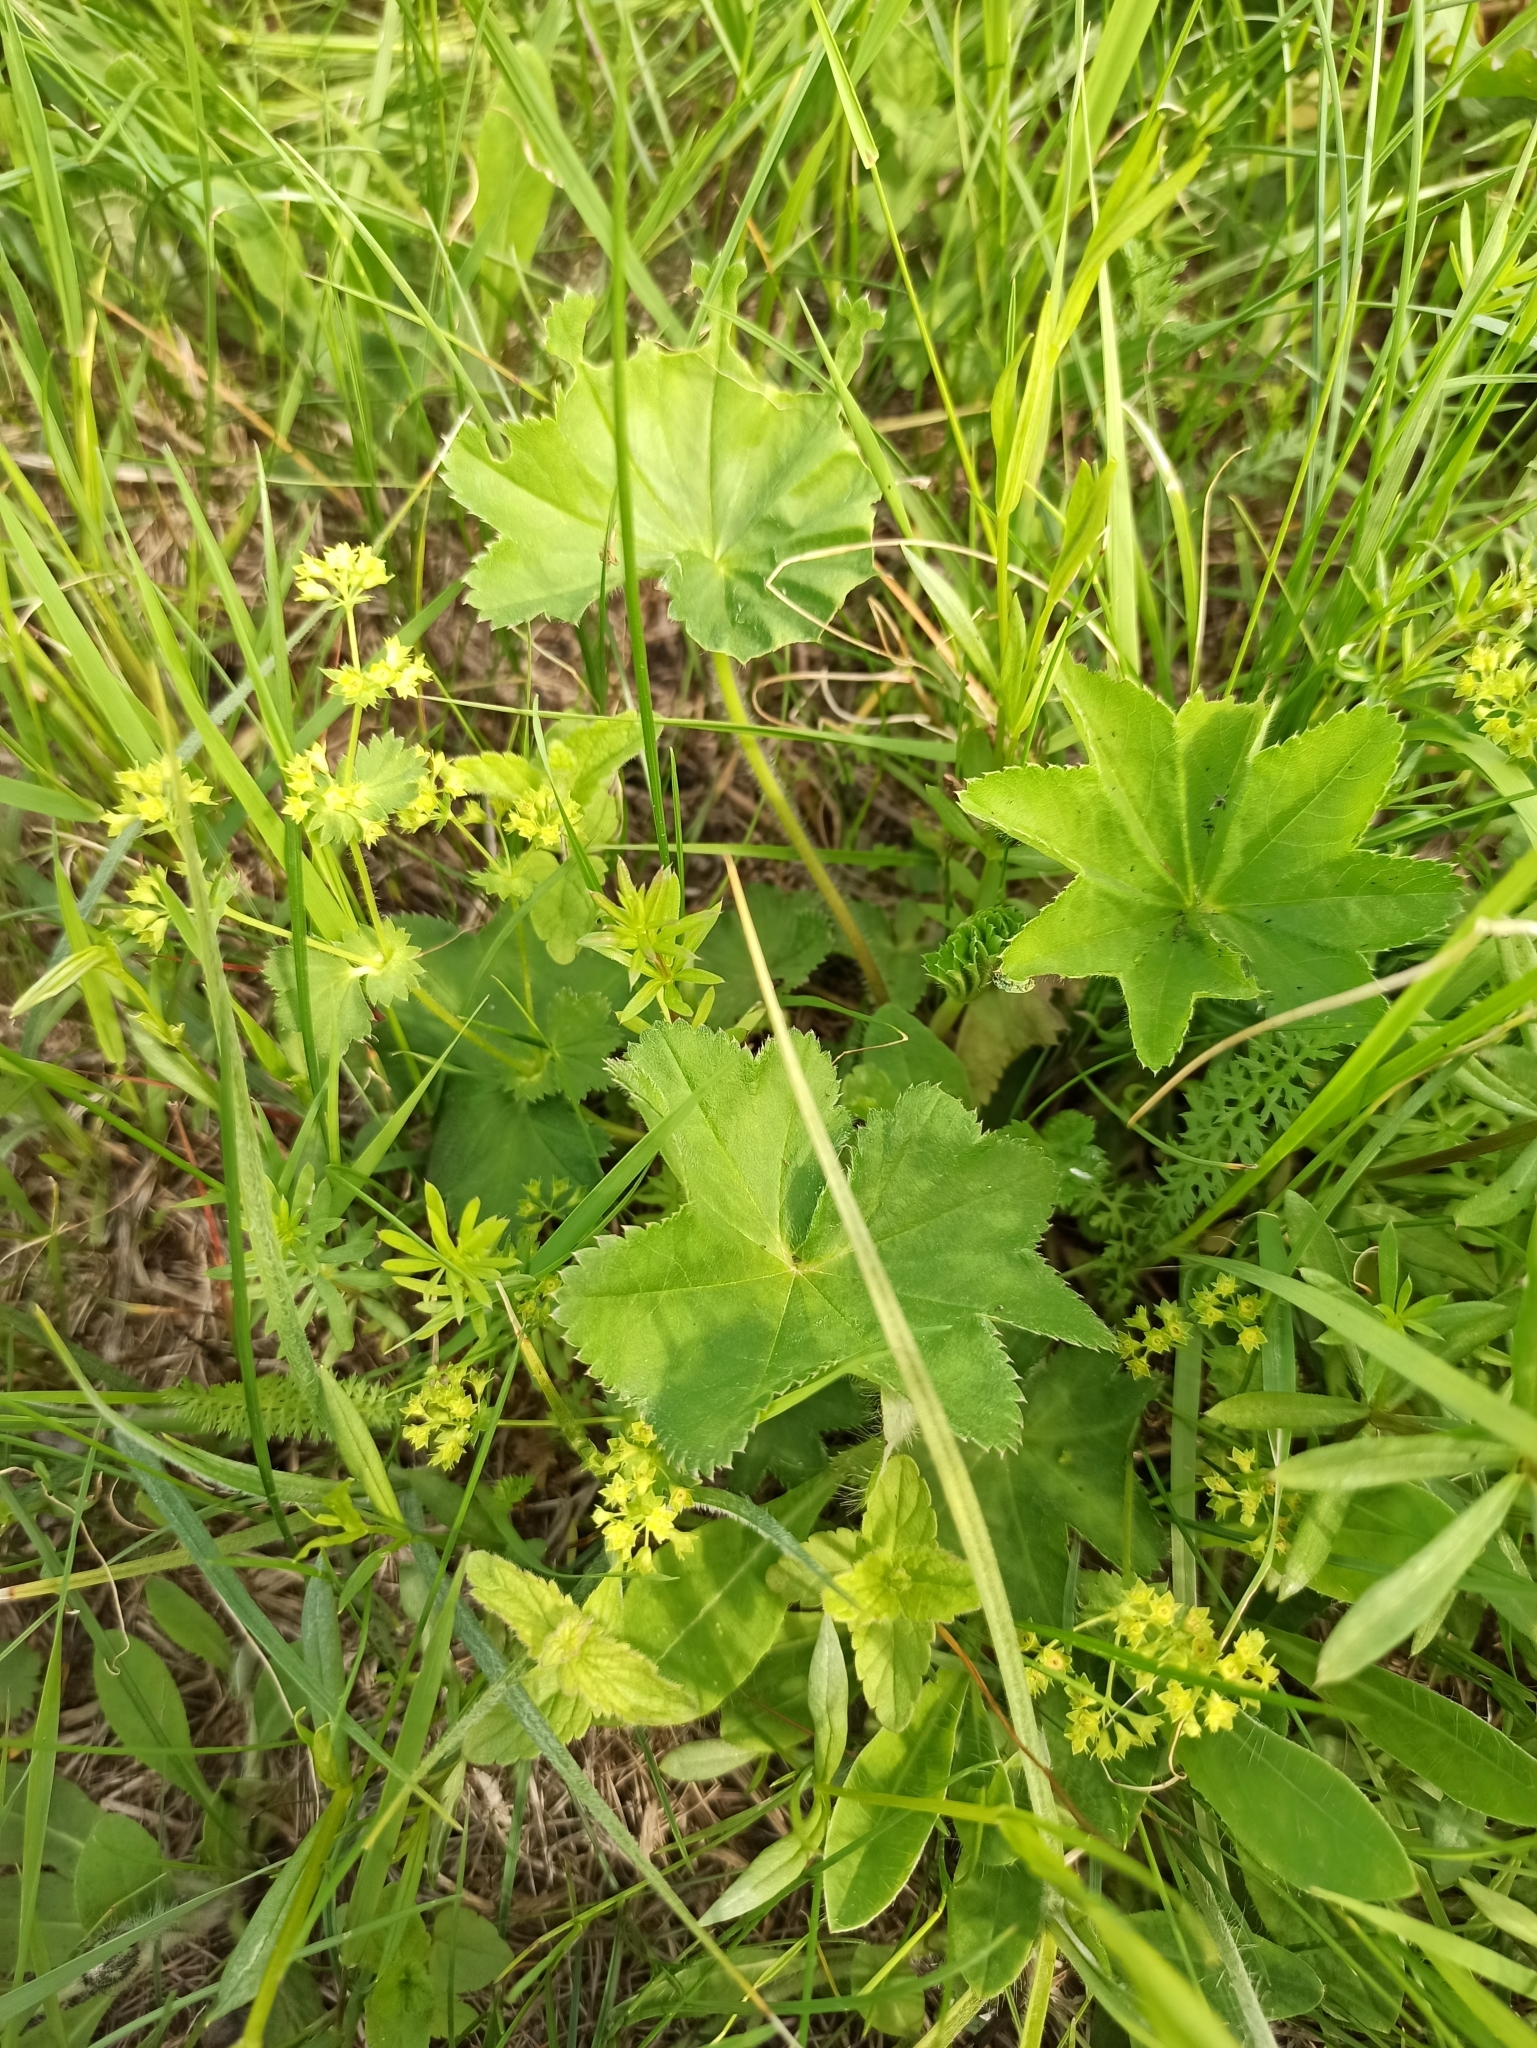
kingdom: Plantae
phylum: Tracheophyta
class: Magnoliopsida
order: Rosales
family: Rosaceae
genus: Alchemilla
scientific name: Alchemilla
